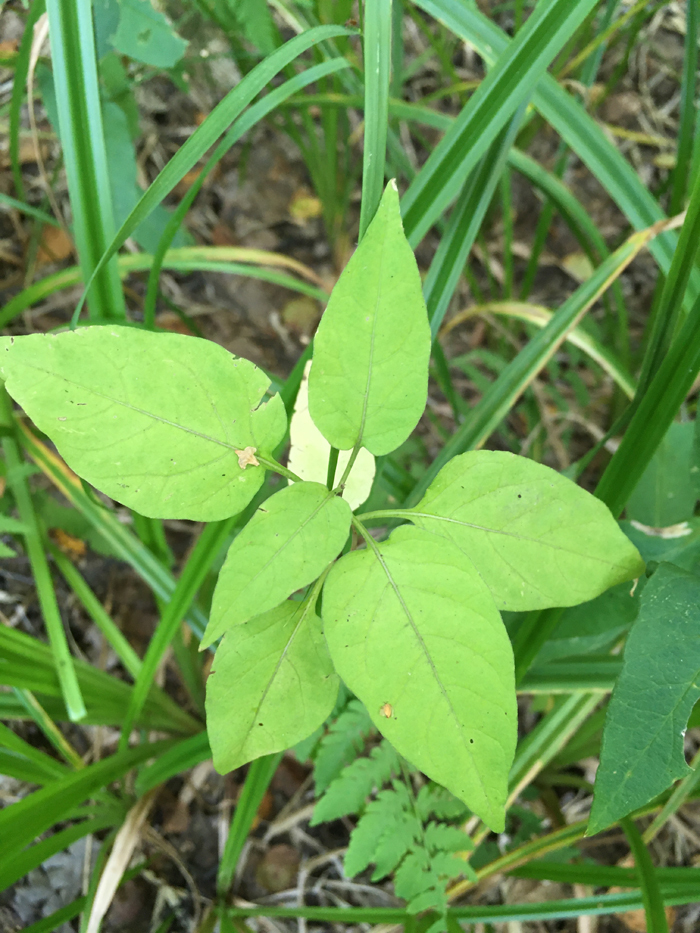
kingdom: Plantae
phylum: Tracheophyta
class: Magnoliopsida
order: Solanales
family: Solanaceae
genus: Solanum
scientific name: Solanum dulcamara
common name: Climbing nightshade
